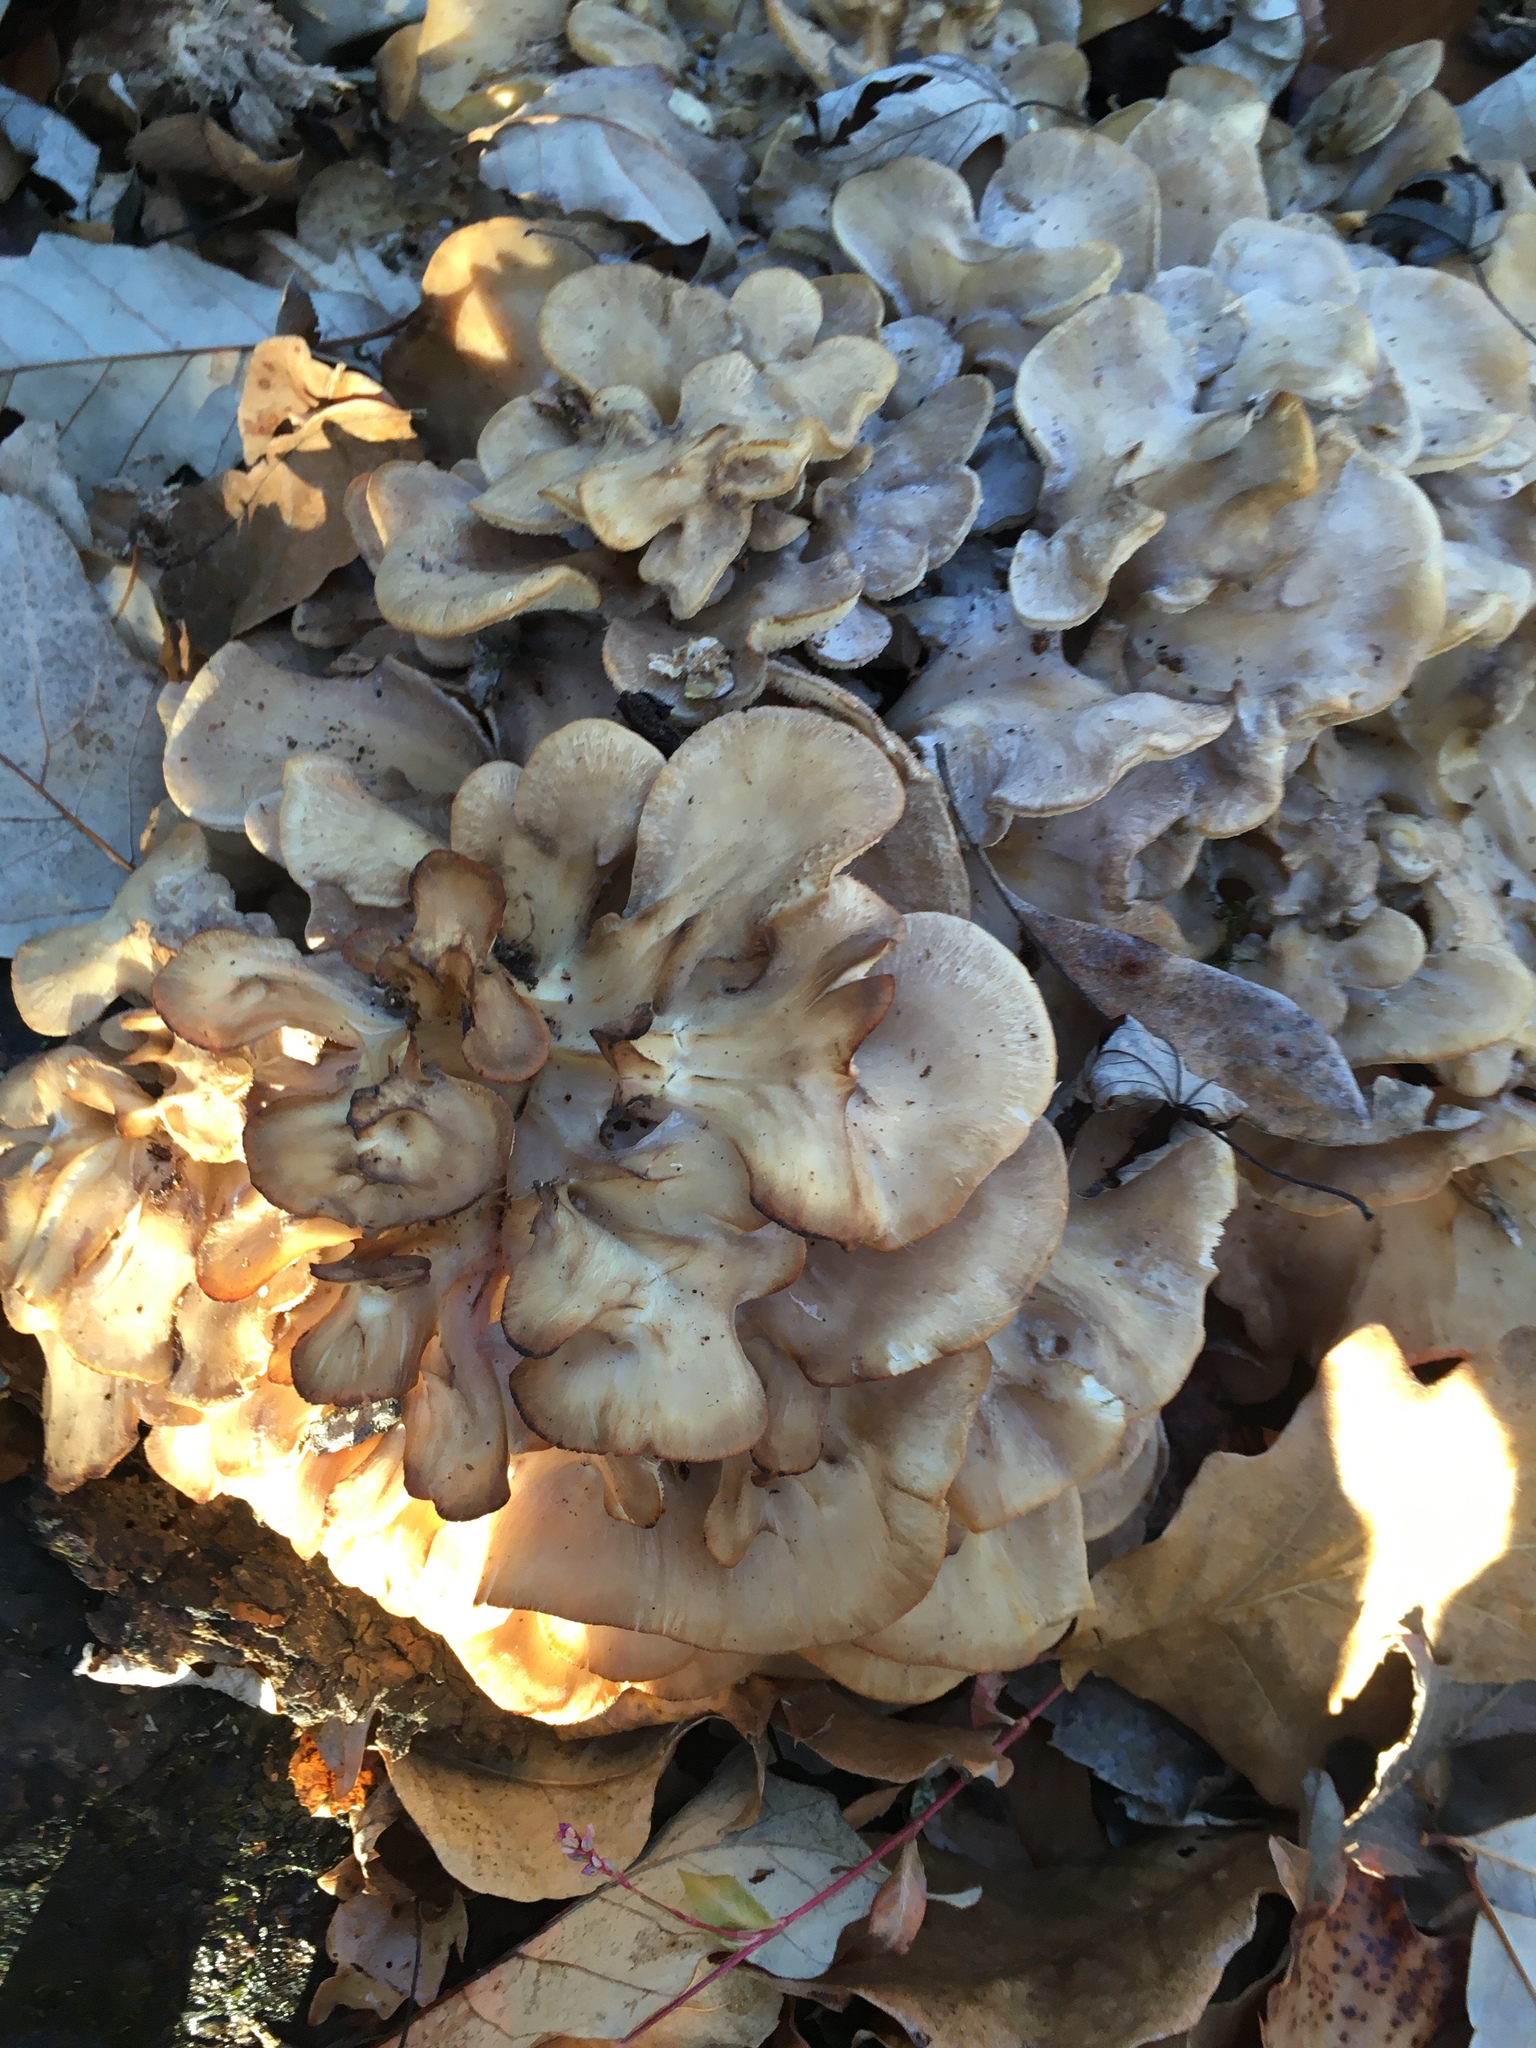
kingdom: Fungi
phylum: Basidiomycota
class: Agaricomycetes
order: Polyporales
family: Grifolaceae
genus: Grifola
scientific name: Grifola frondosa
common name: Hen of the woods
